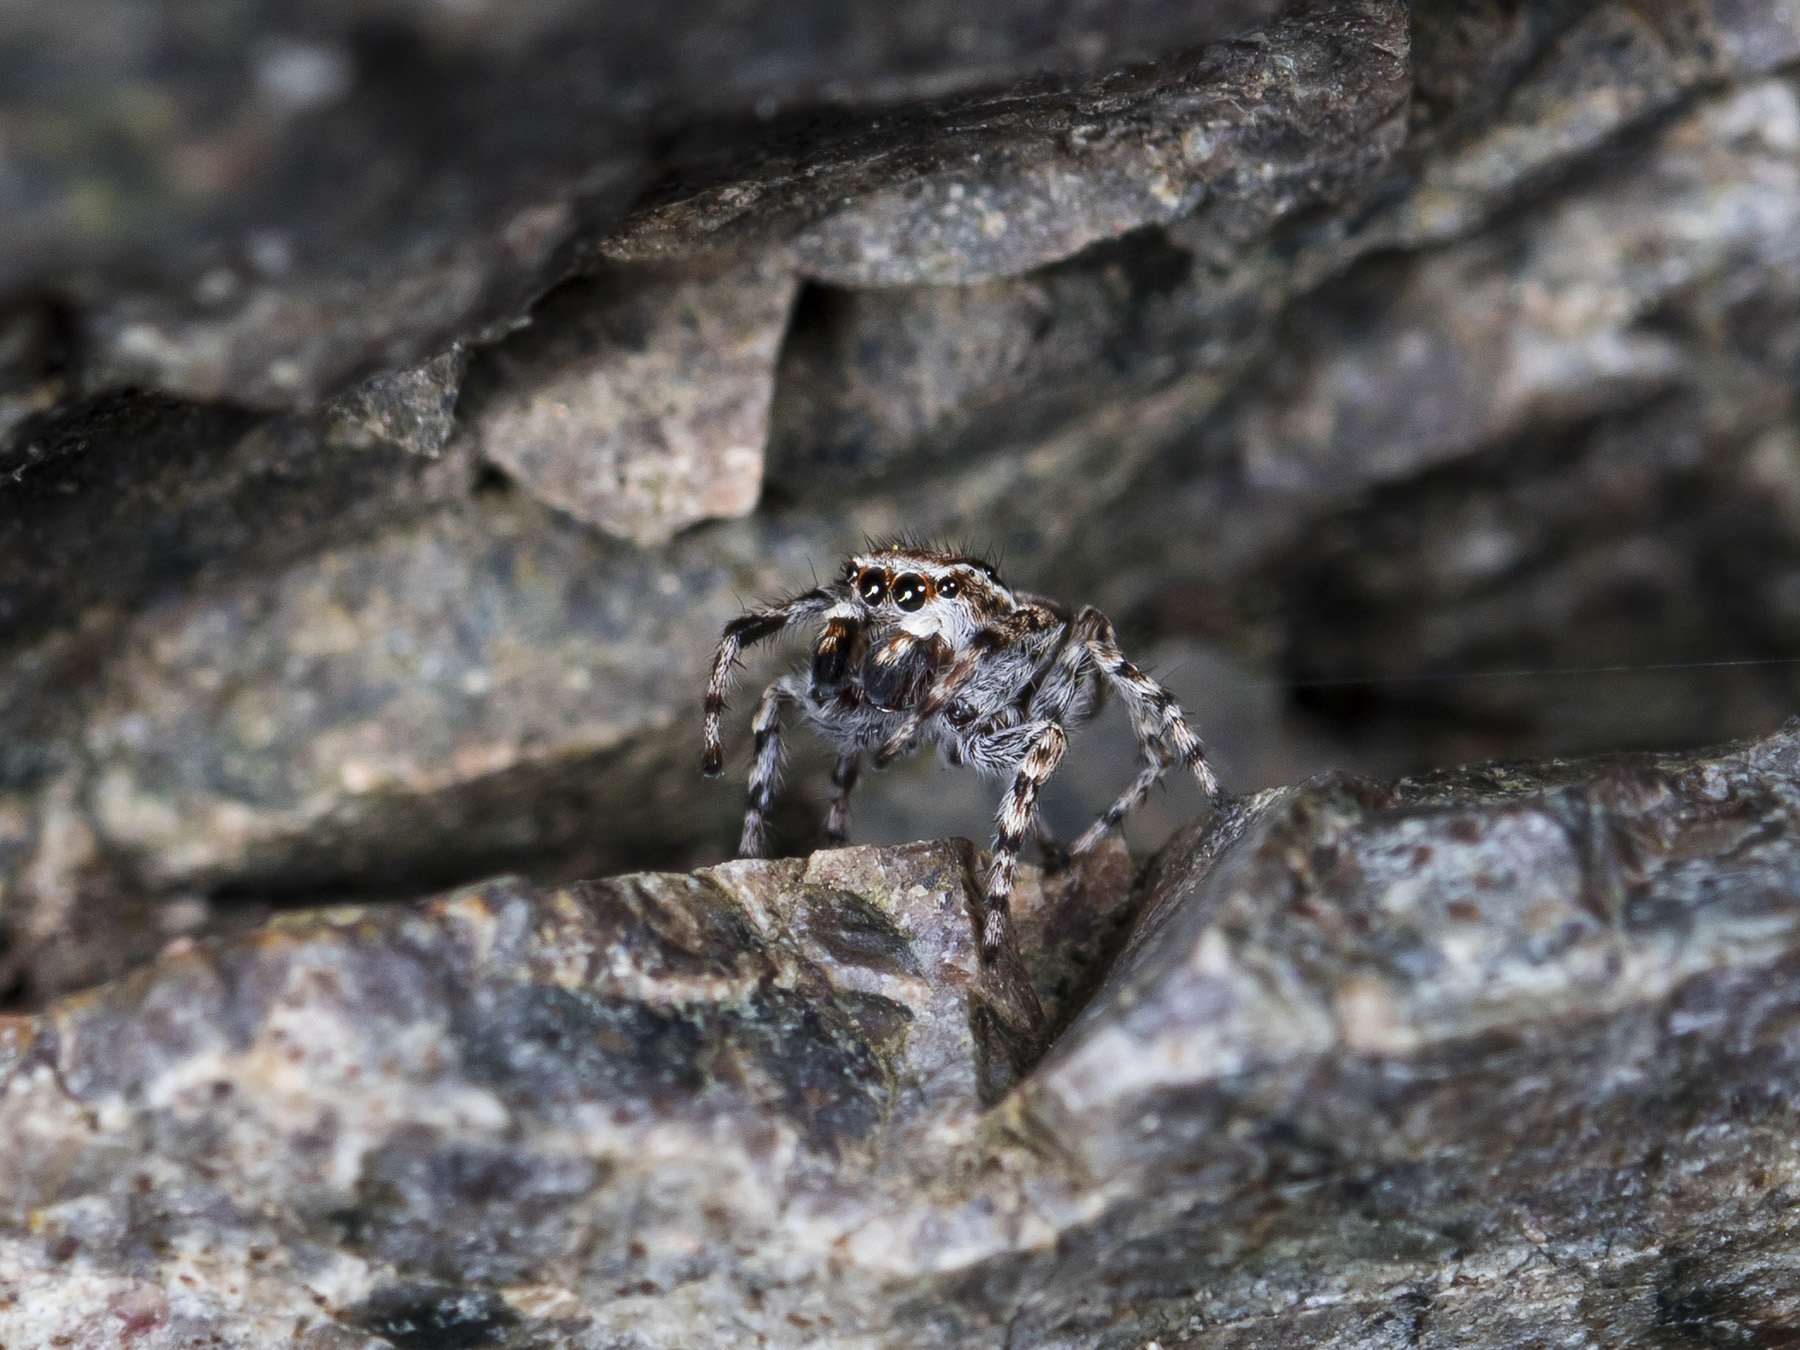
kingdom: Animalia
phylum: Arthropoda
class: Arachnida
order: Araneae
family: Salticidae
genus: Attulus
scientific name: Attulus avocator
